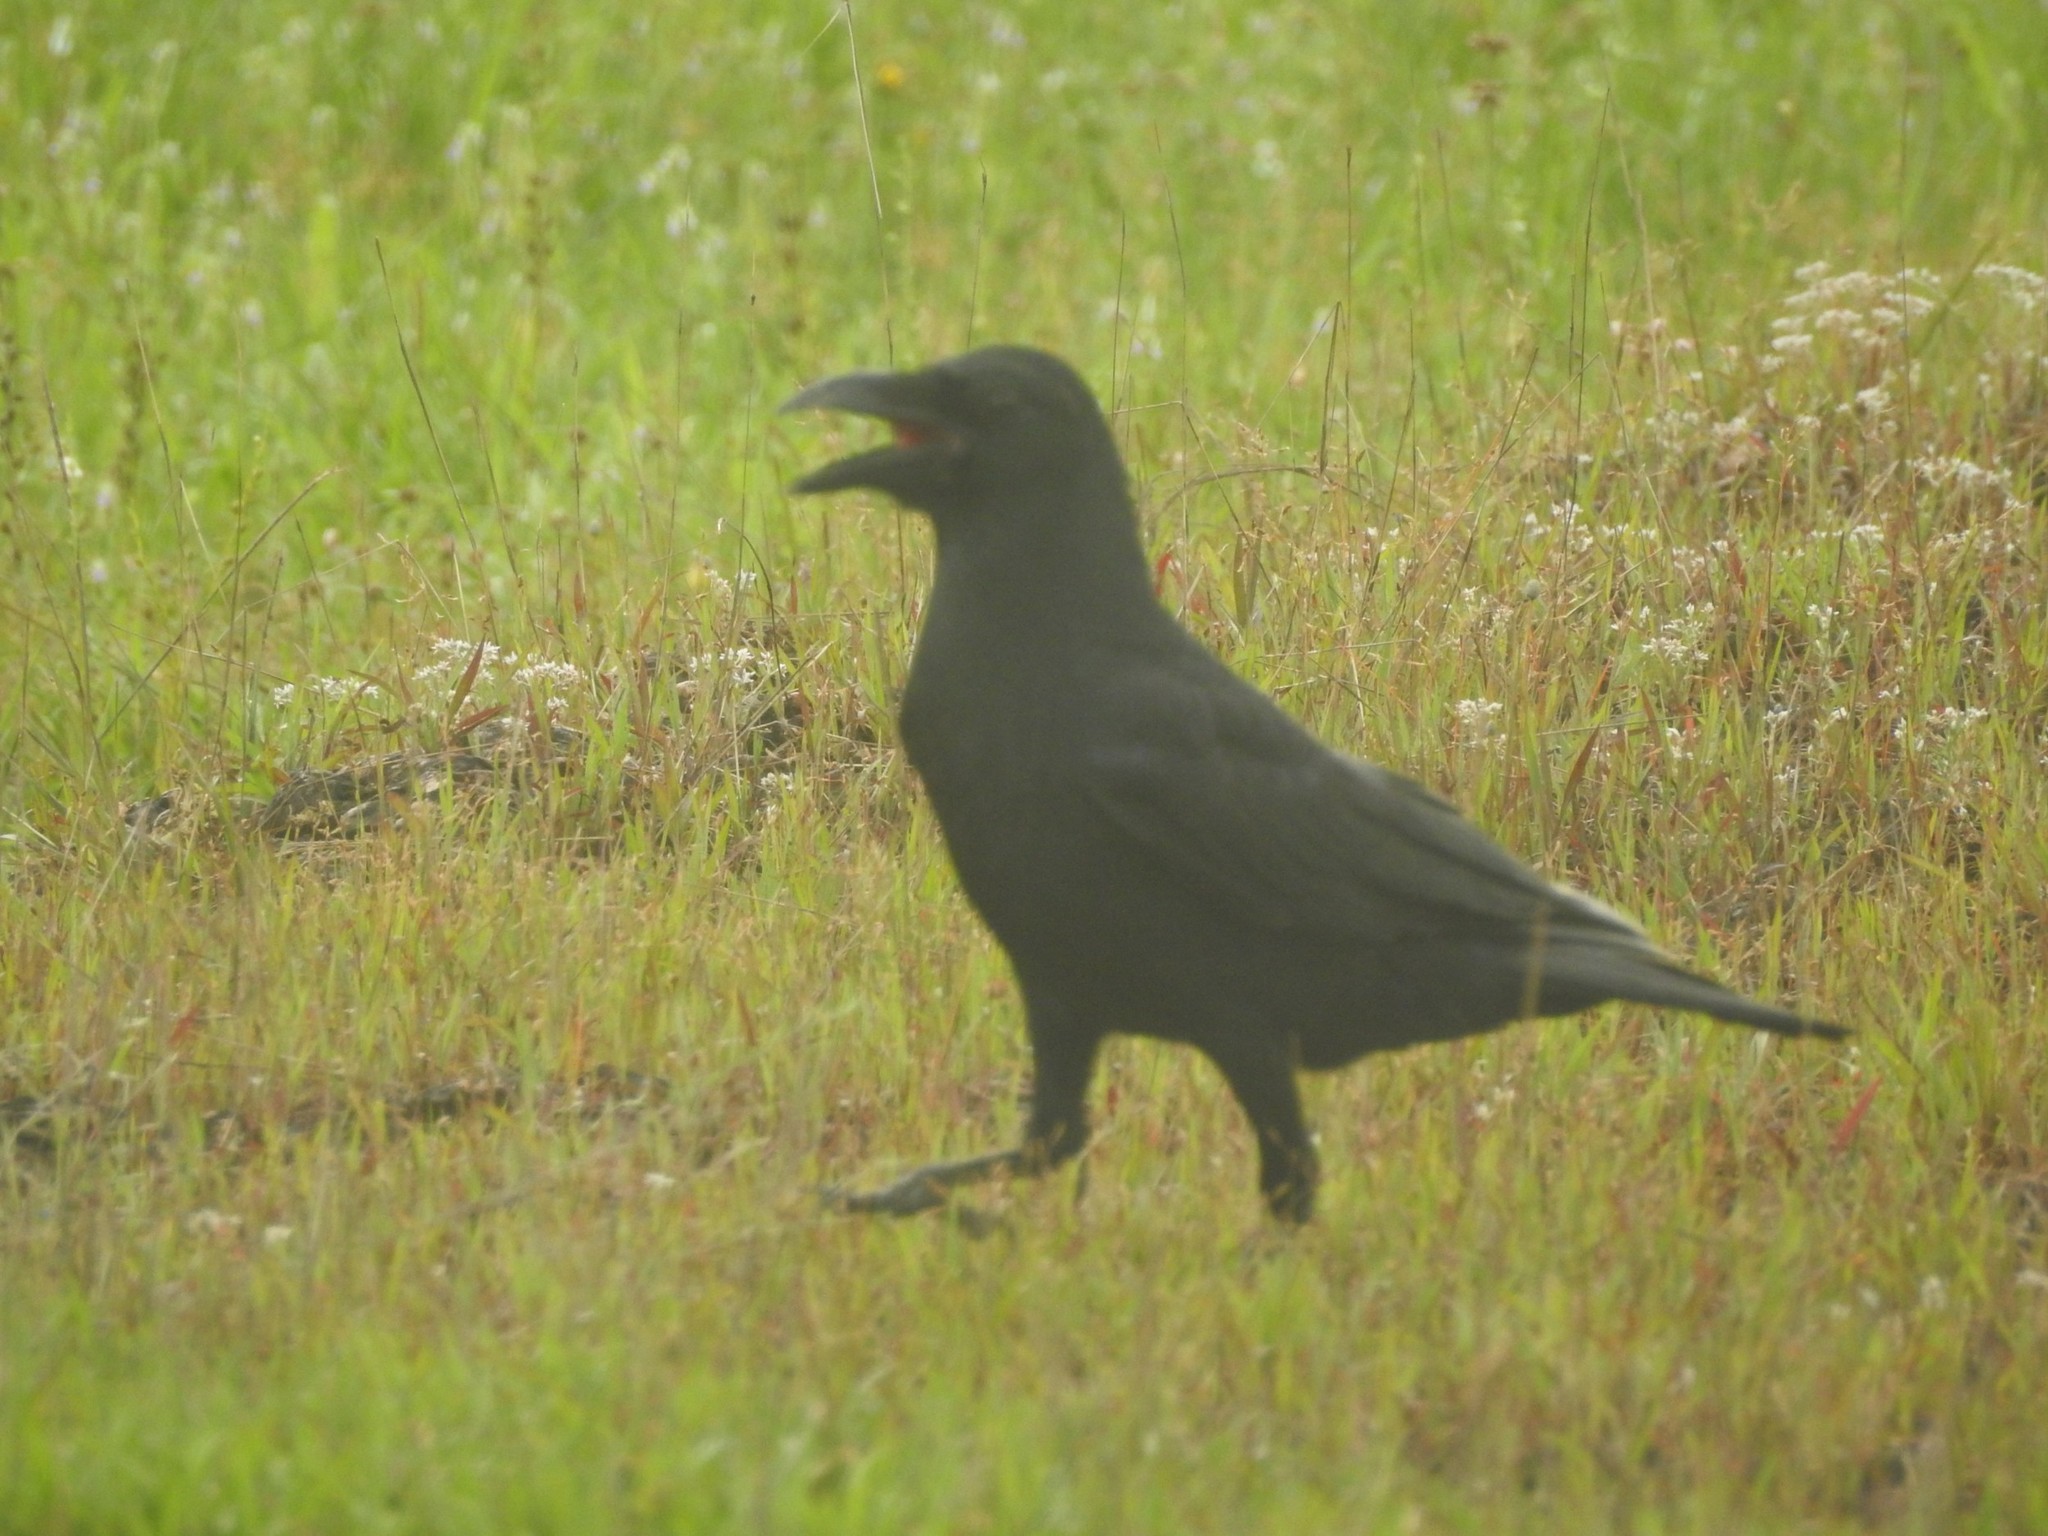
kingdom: Animalia
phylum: Chordata
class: Aves
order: Passeriformes
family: Corvidae
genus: Corvus
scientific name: Corvus macrorhynchos
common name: Large-billed crow
